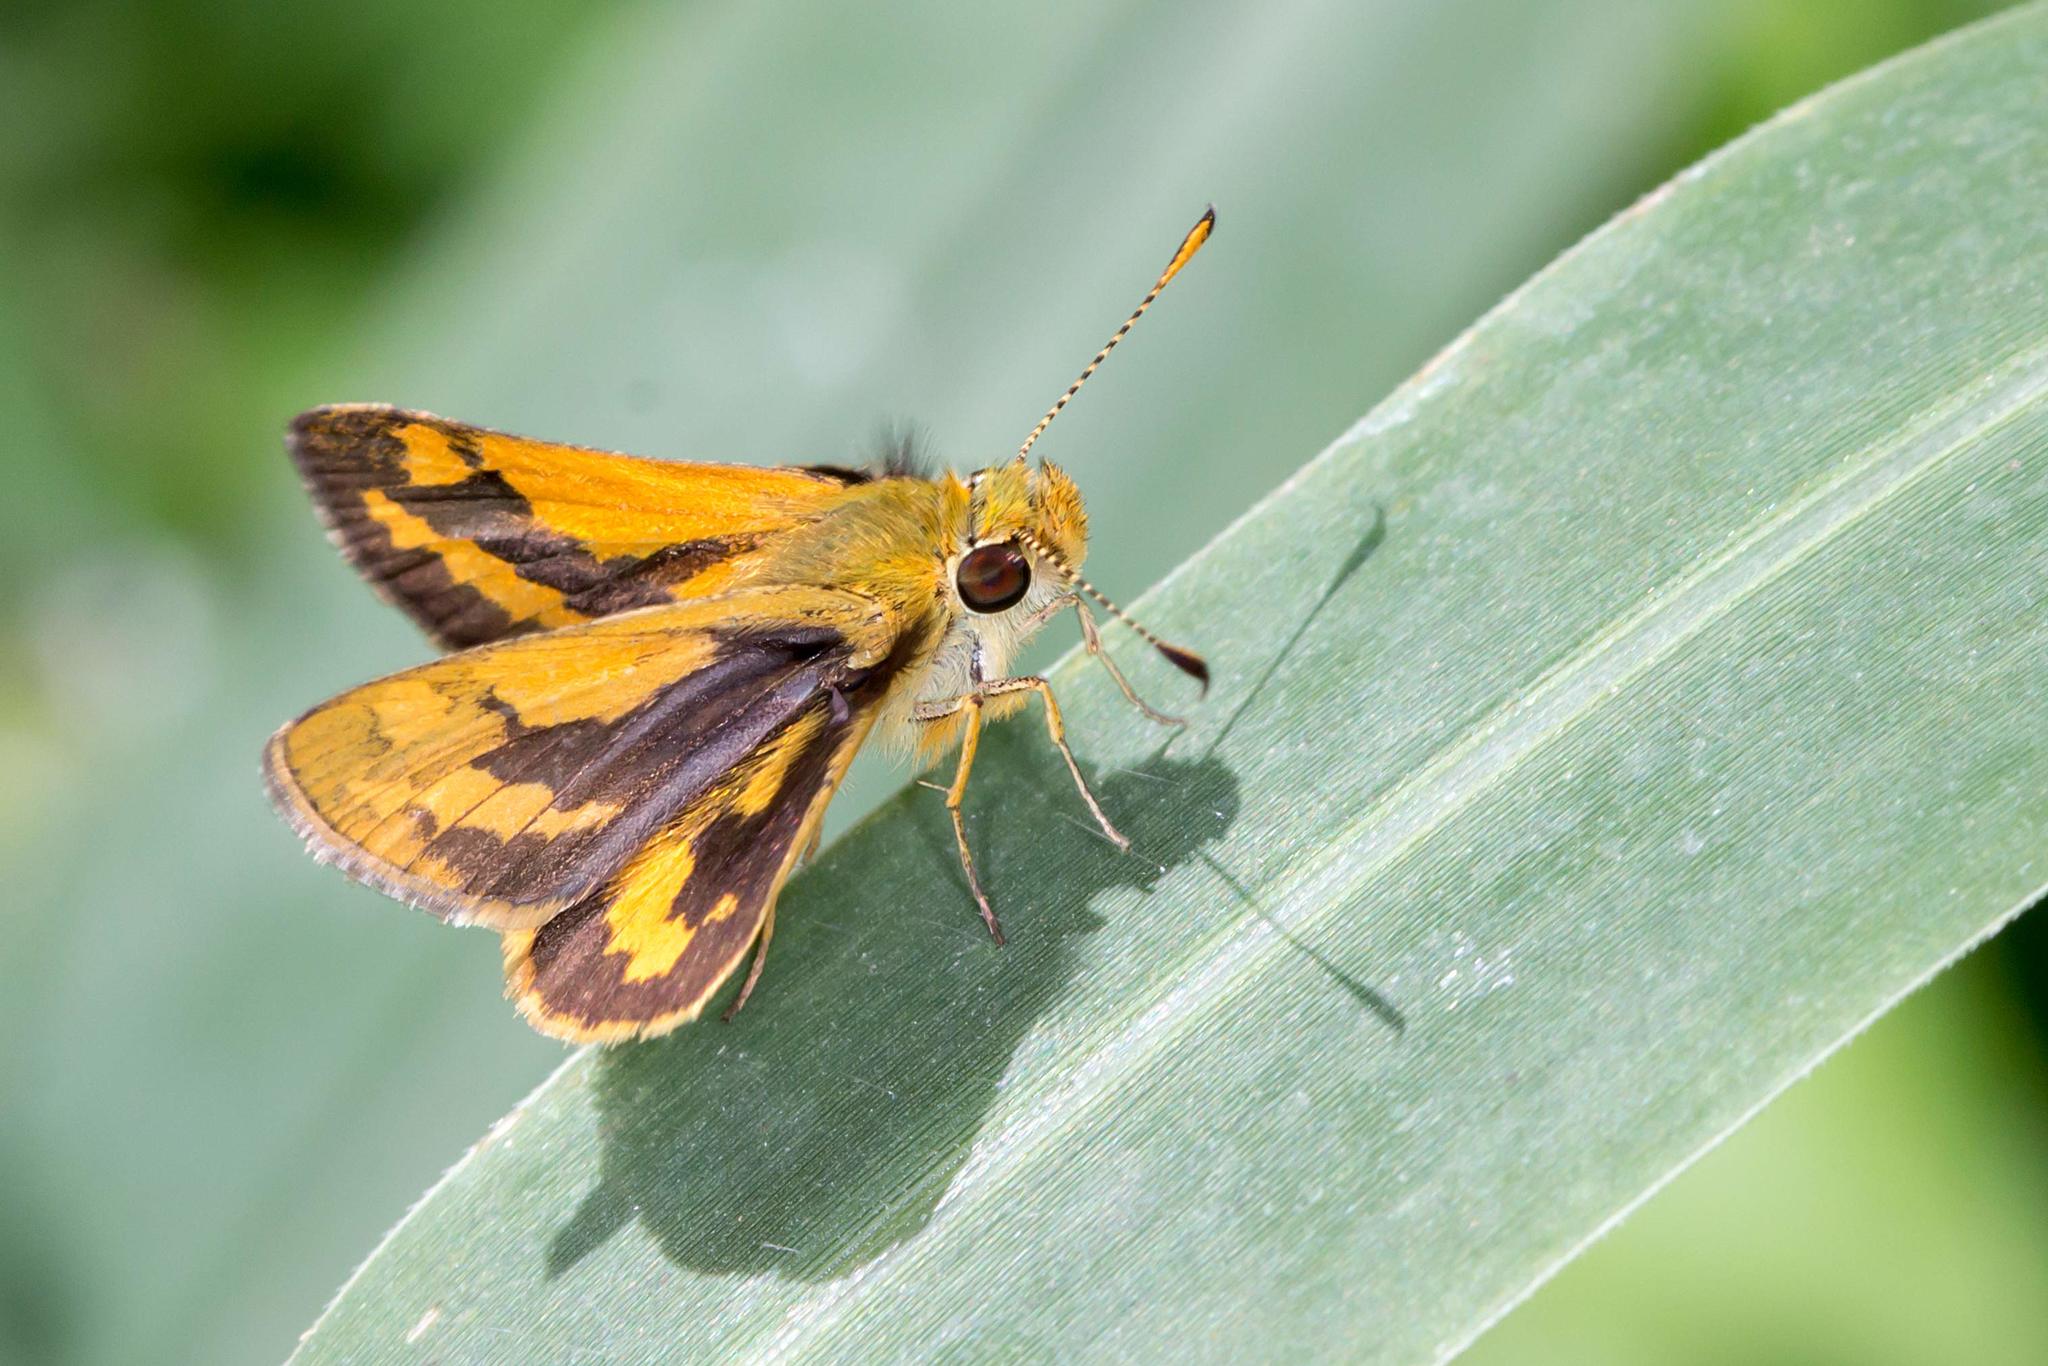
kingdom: Animalia
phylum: Arthropoda
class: Insecta
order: Lepidoptera
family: Hesperiidae
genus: Ocybadistes
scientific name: Ocybadistes walkeri
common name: Yellow-banded dart
